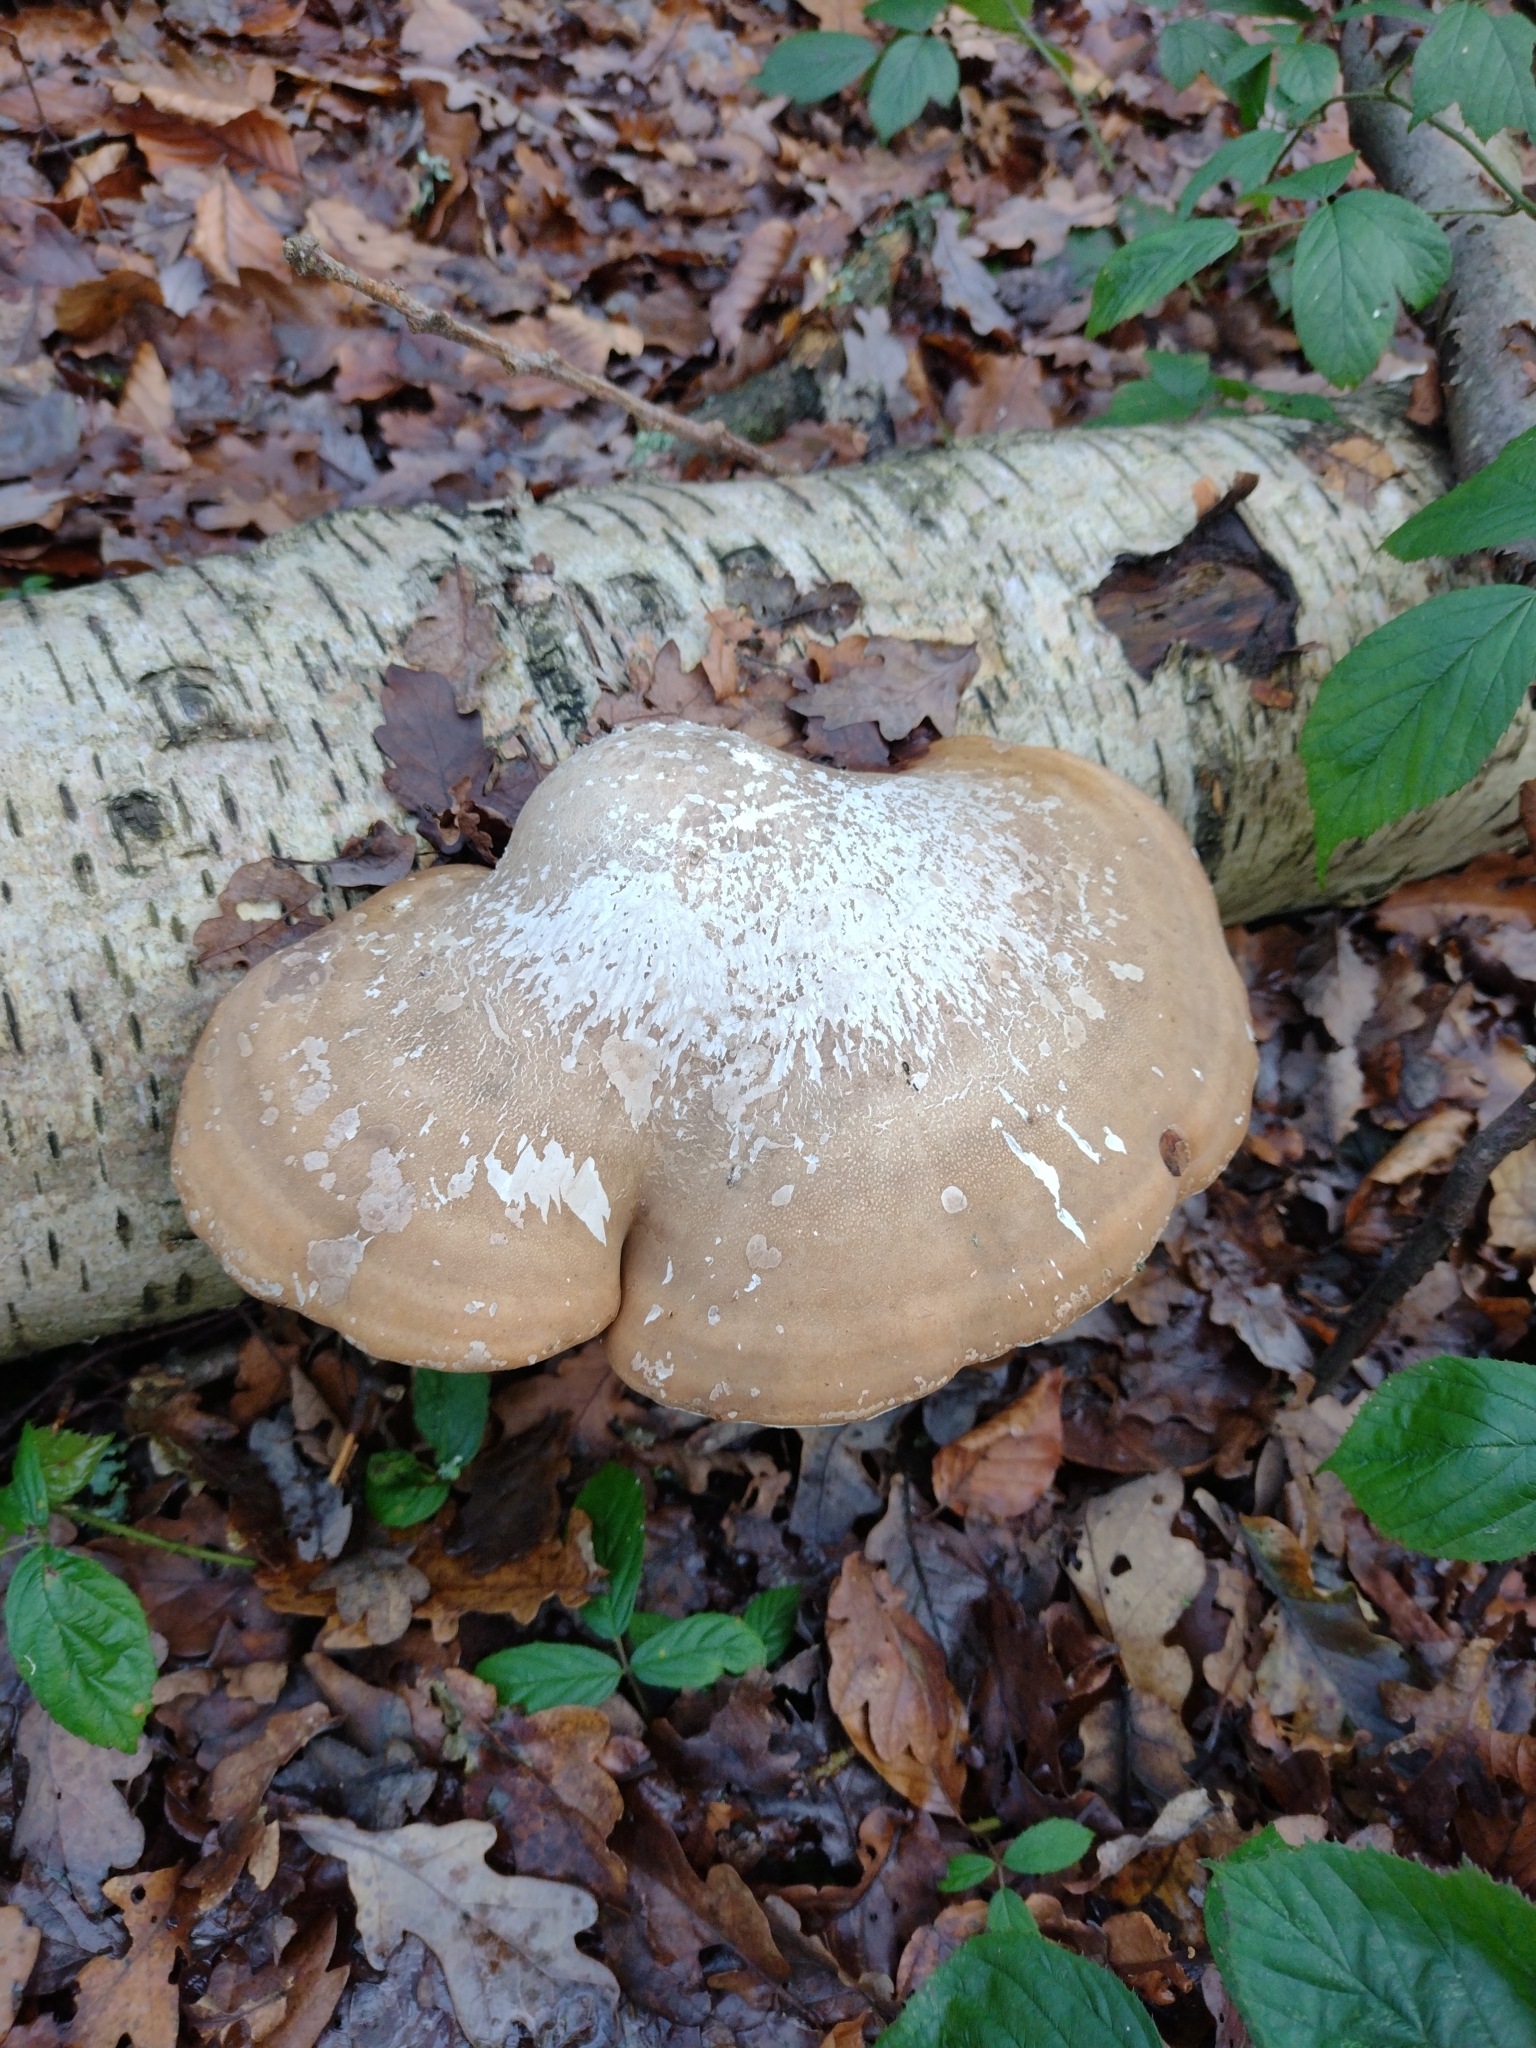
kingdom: Fungi
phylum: Basidiomycota
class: Agaricomycetes
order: Polyporales
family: Fomitopsidaceae
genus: Fomitopsis
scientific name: Fomitopsis betulina
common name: Birch polypore
